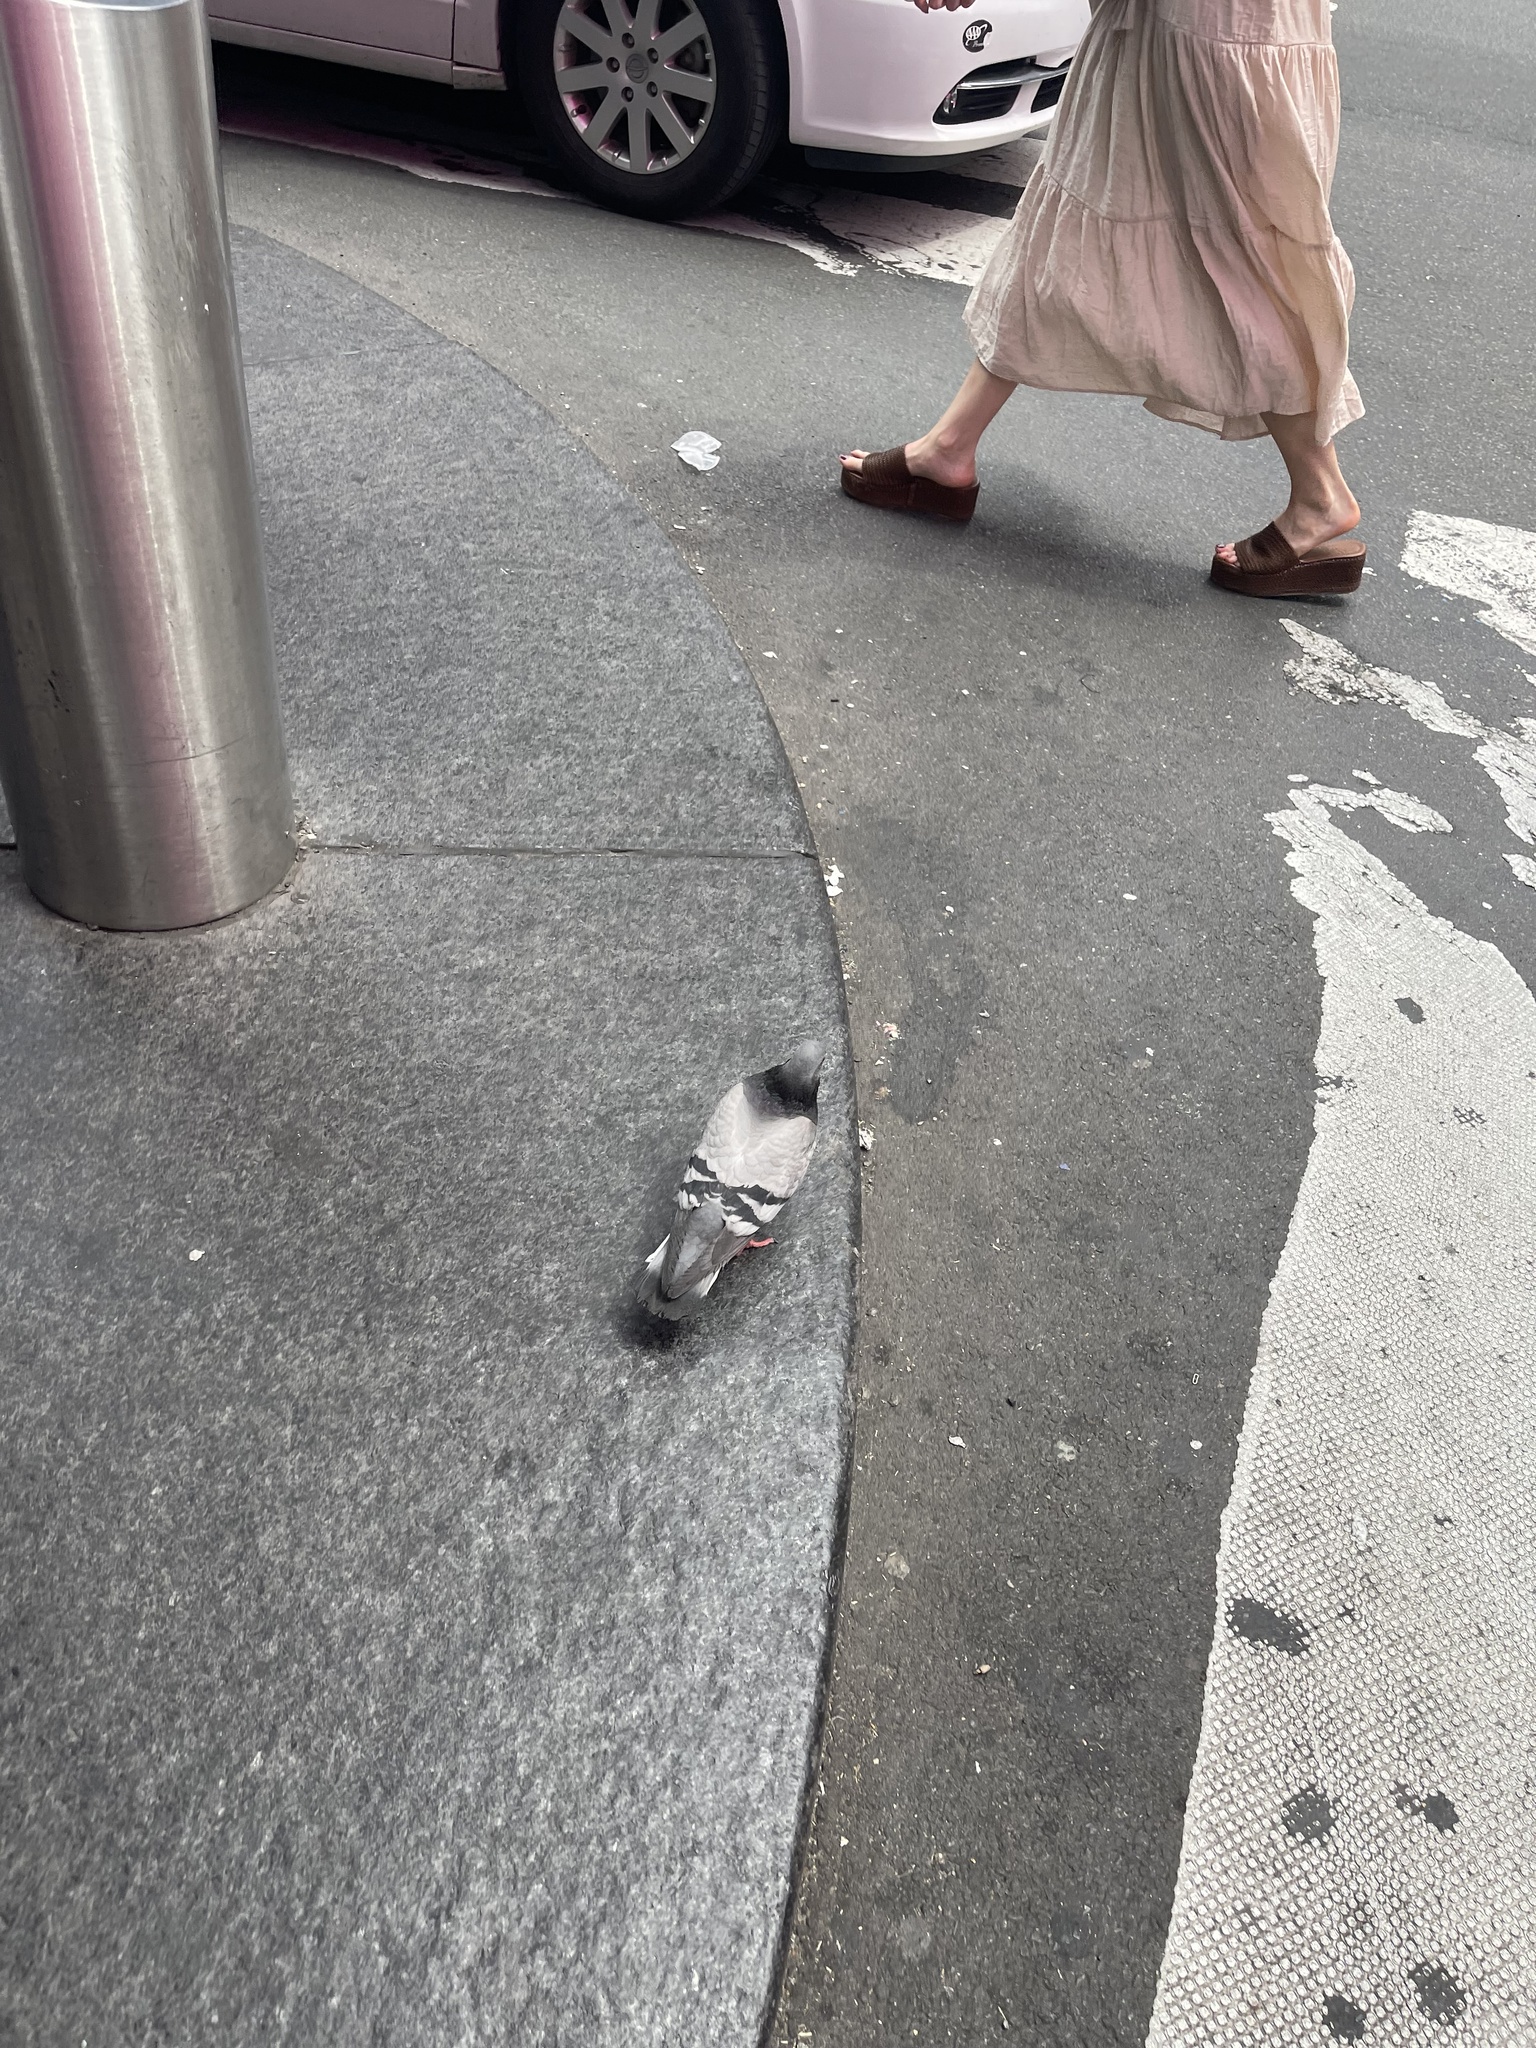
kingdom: Animalia
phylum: Chordata
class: Aves
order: Columbiformes
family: Columbidae
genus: Columba
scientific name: Columba livia
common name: Rock pigeon
